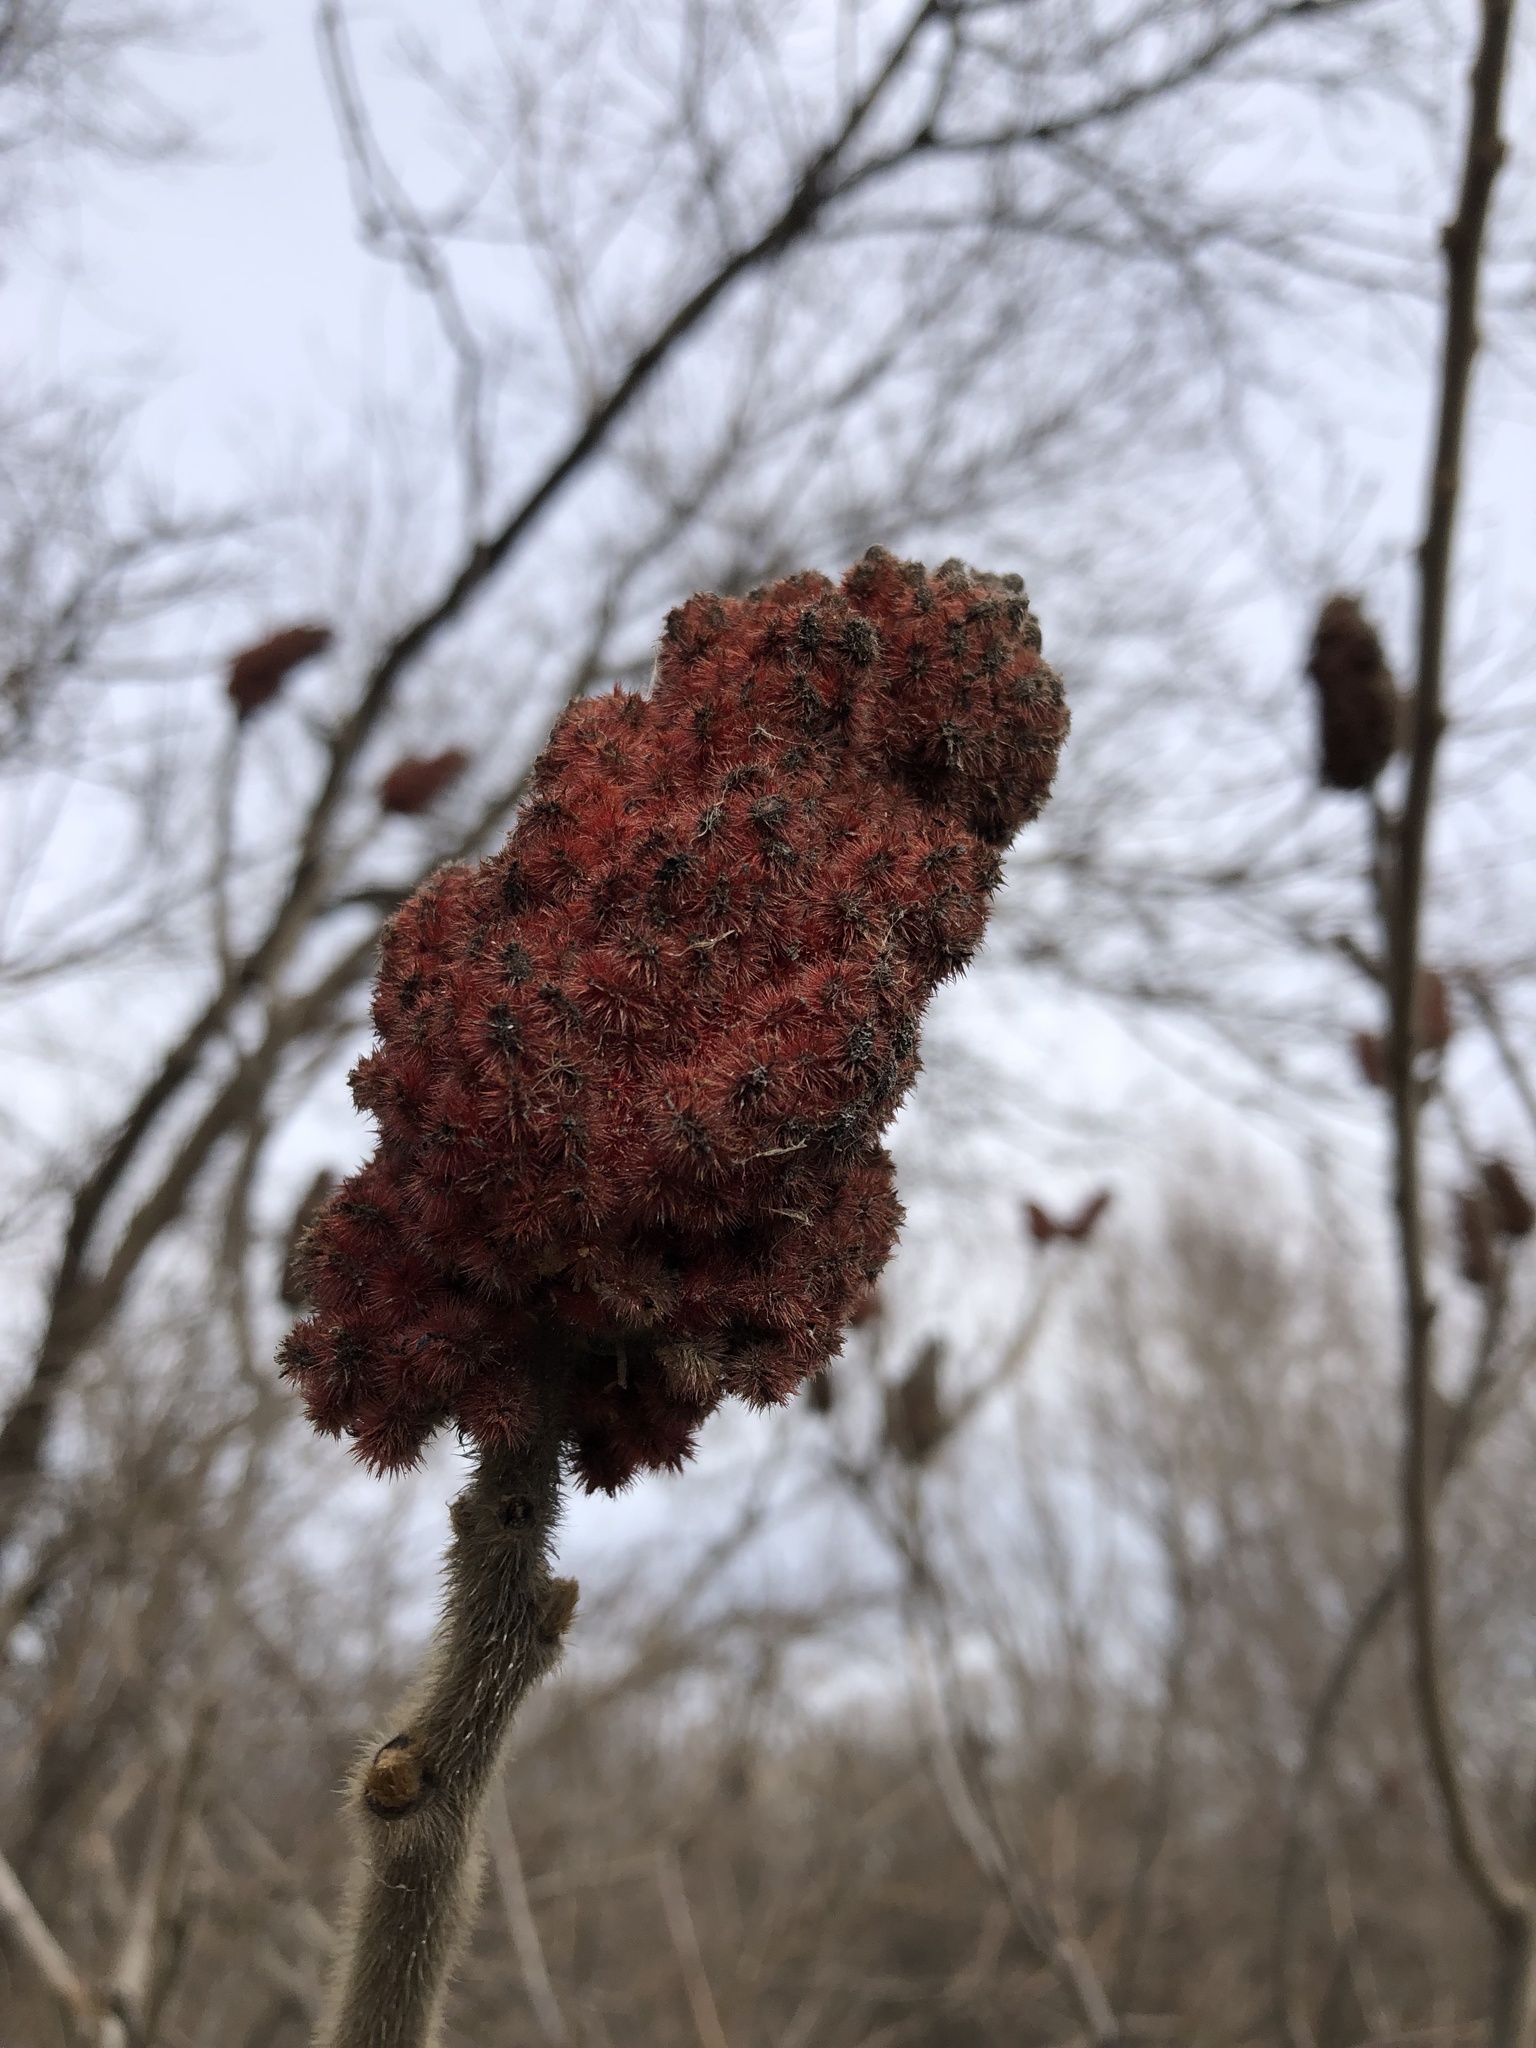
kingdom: Plantae
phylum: Tracheophyta
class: Magnoliopsida
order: Sapindales
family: Anacardiaceae
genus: Rhus
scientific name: Rhus typhina
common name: Staghorn sumac
